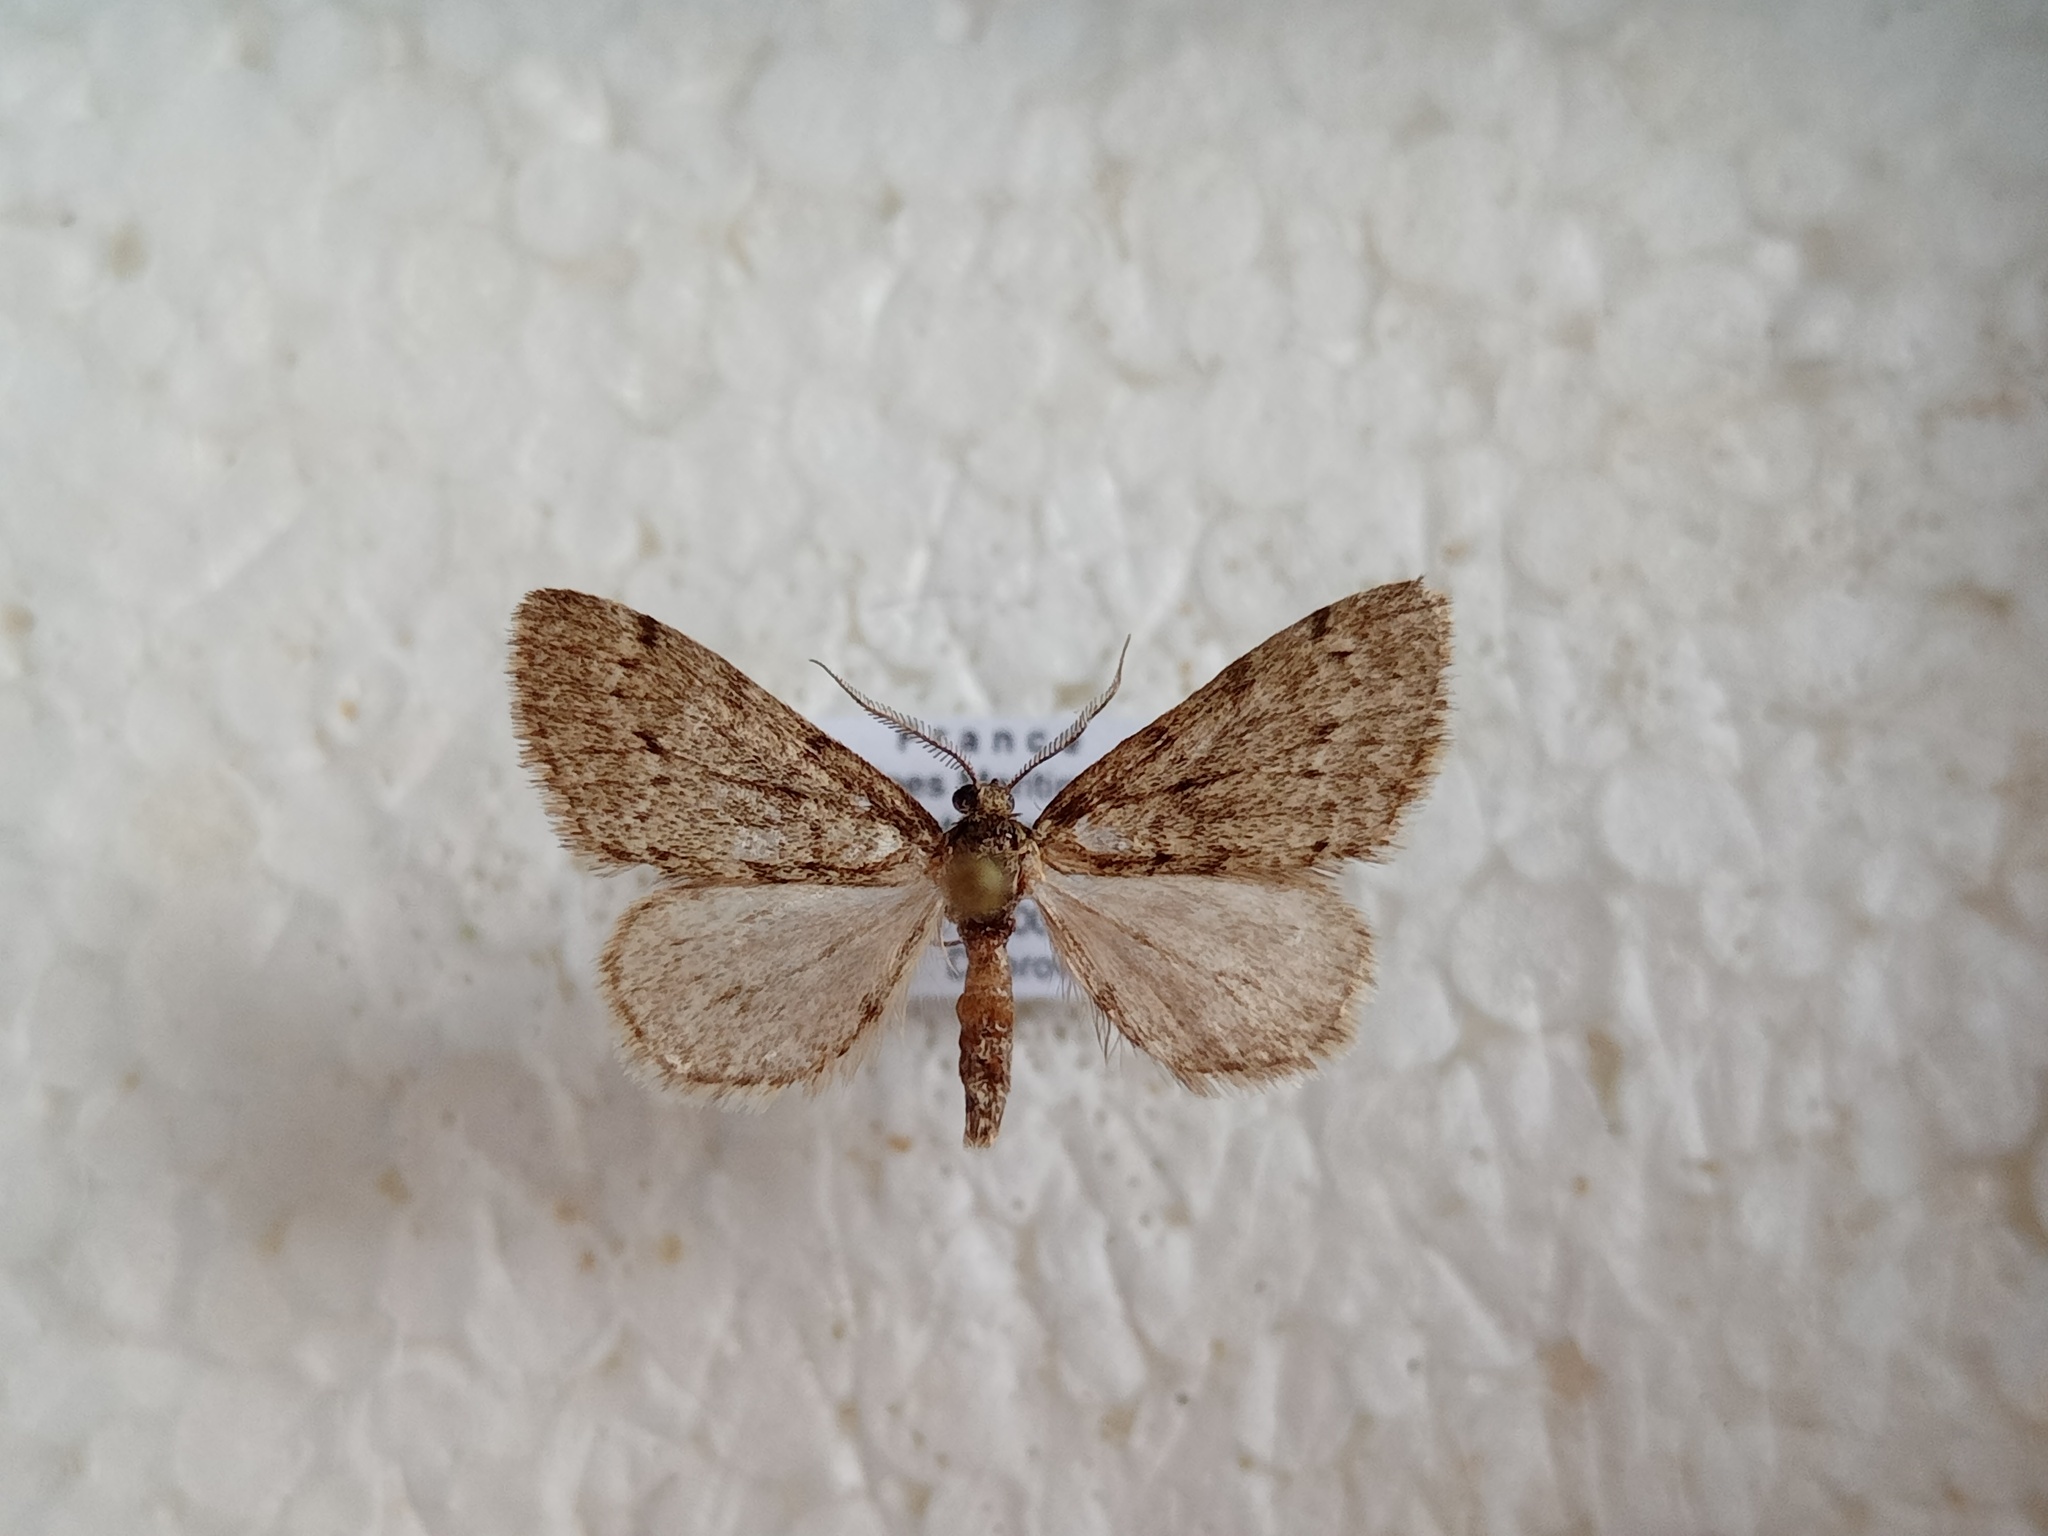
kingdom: Animalia
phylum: Arthropoda
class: Insecta
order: Lepidoptera
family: Geometridae
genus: Tephronia
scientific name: Tephronia sepiaria
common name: Dusky carpet
